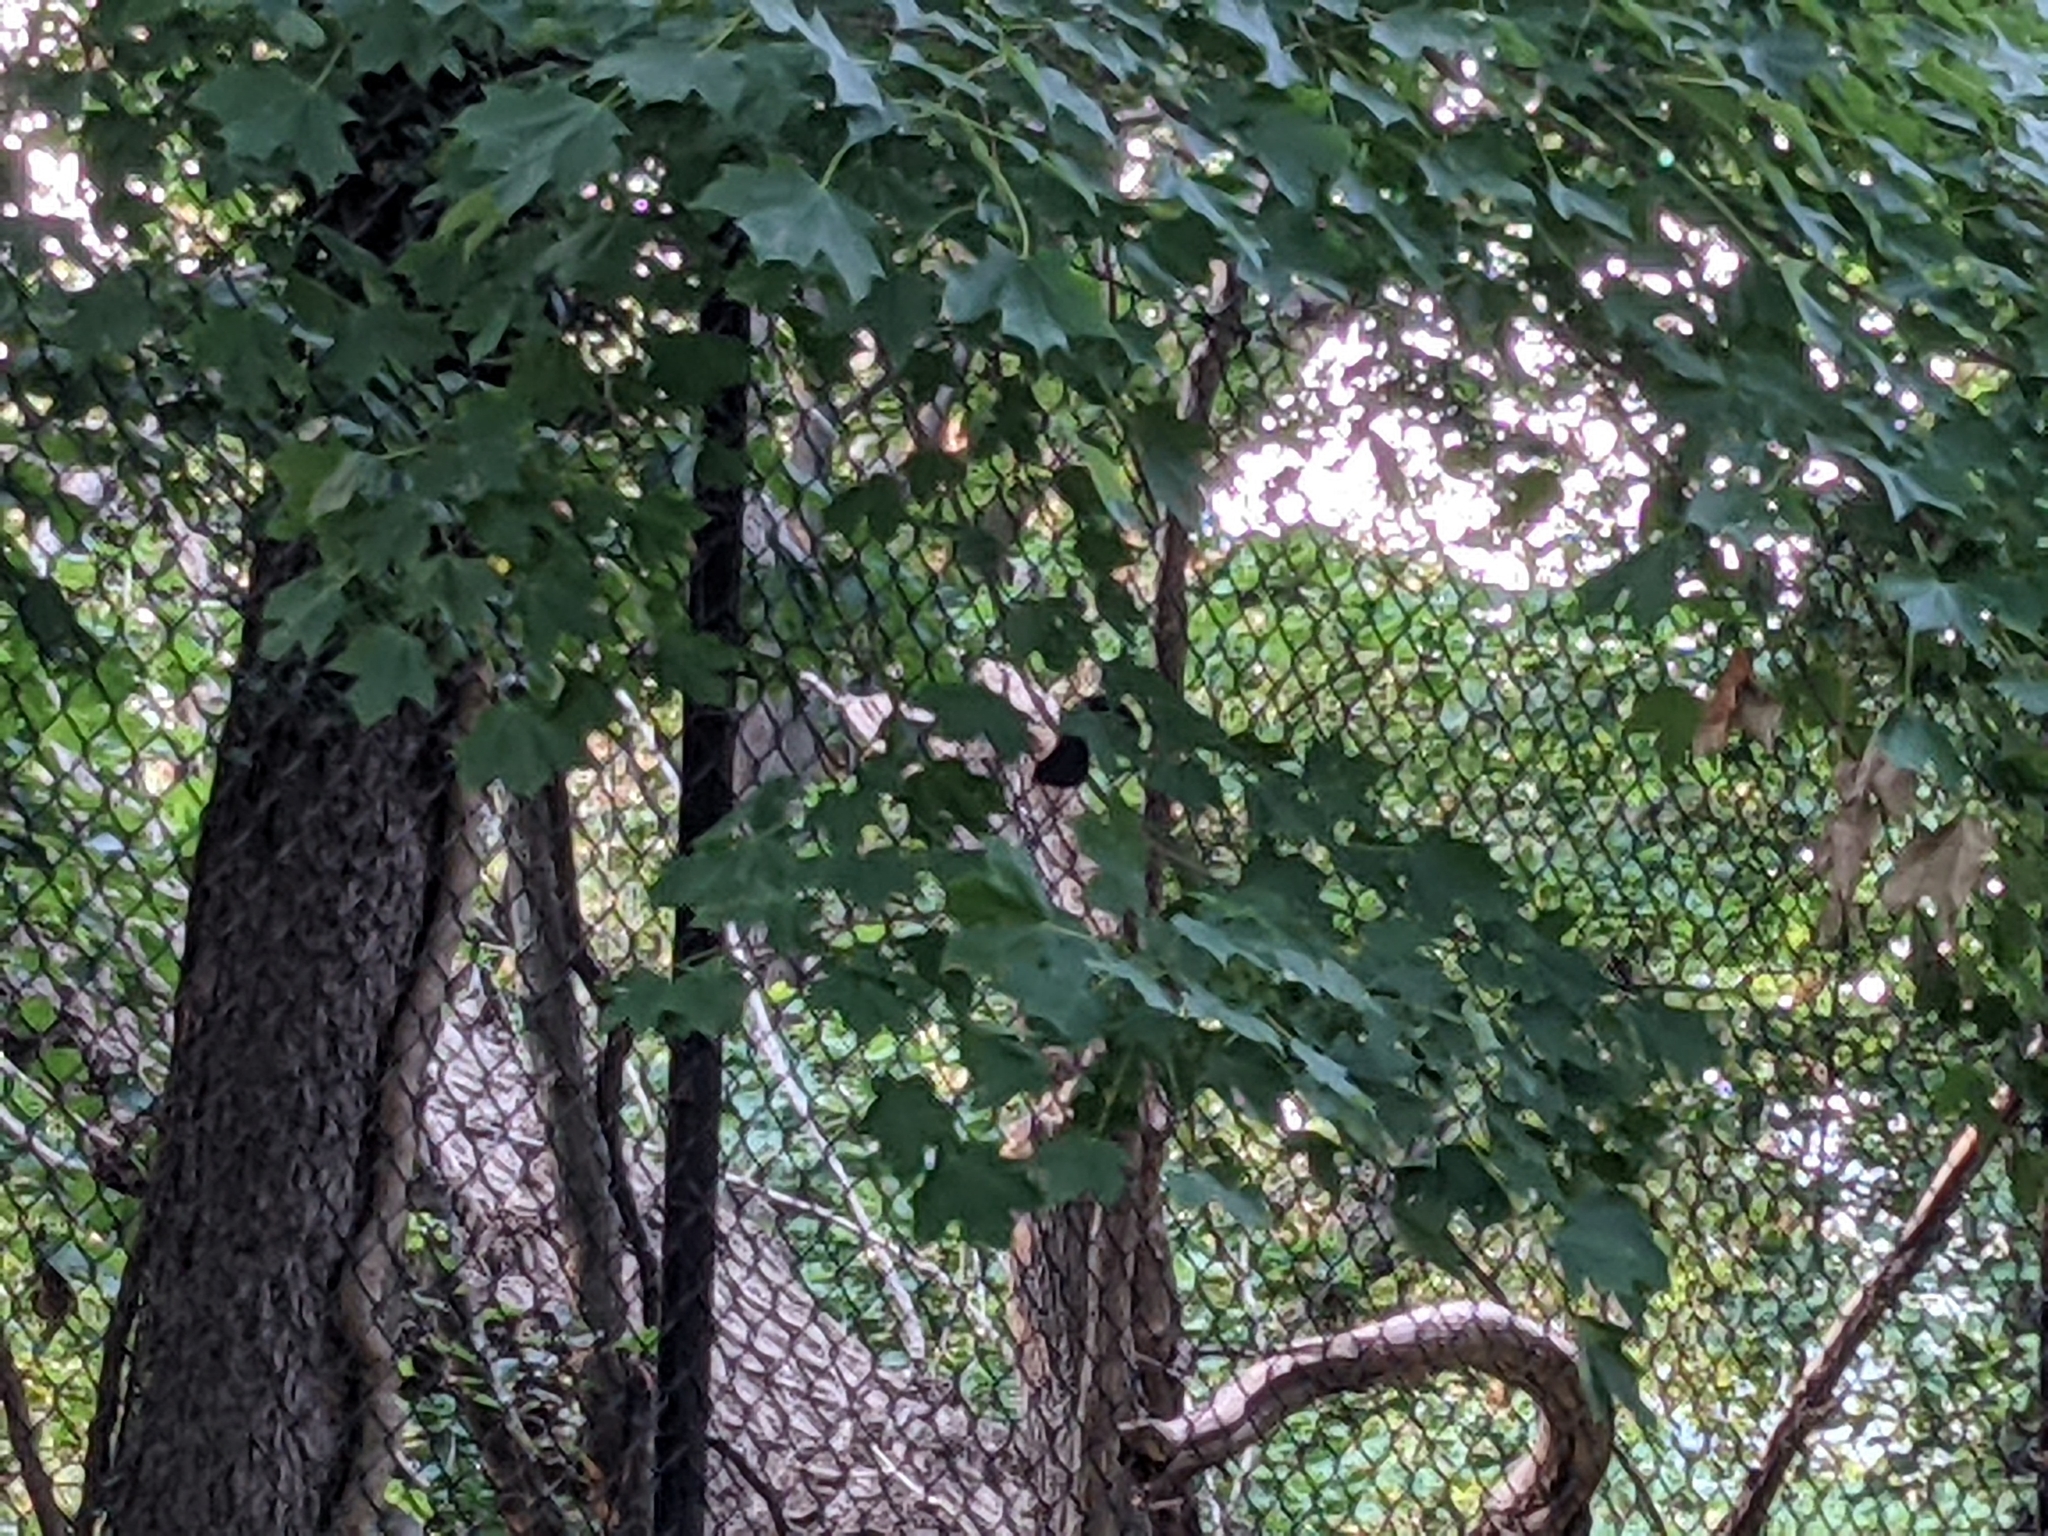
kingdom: Animalia
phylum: Chordata
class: Aves
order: Passeriformes
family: Mimidae
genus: Dumetella
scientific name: Dumetella carolinensis
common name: Gray catbird
